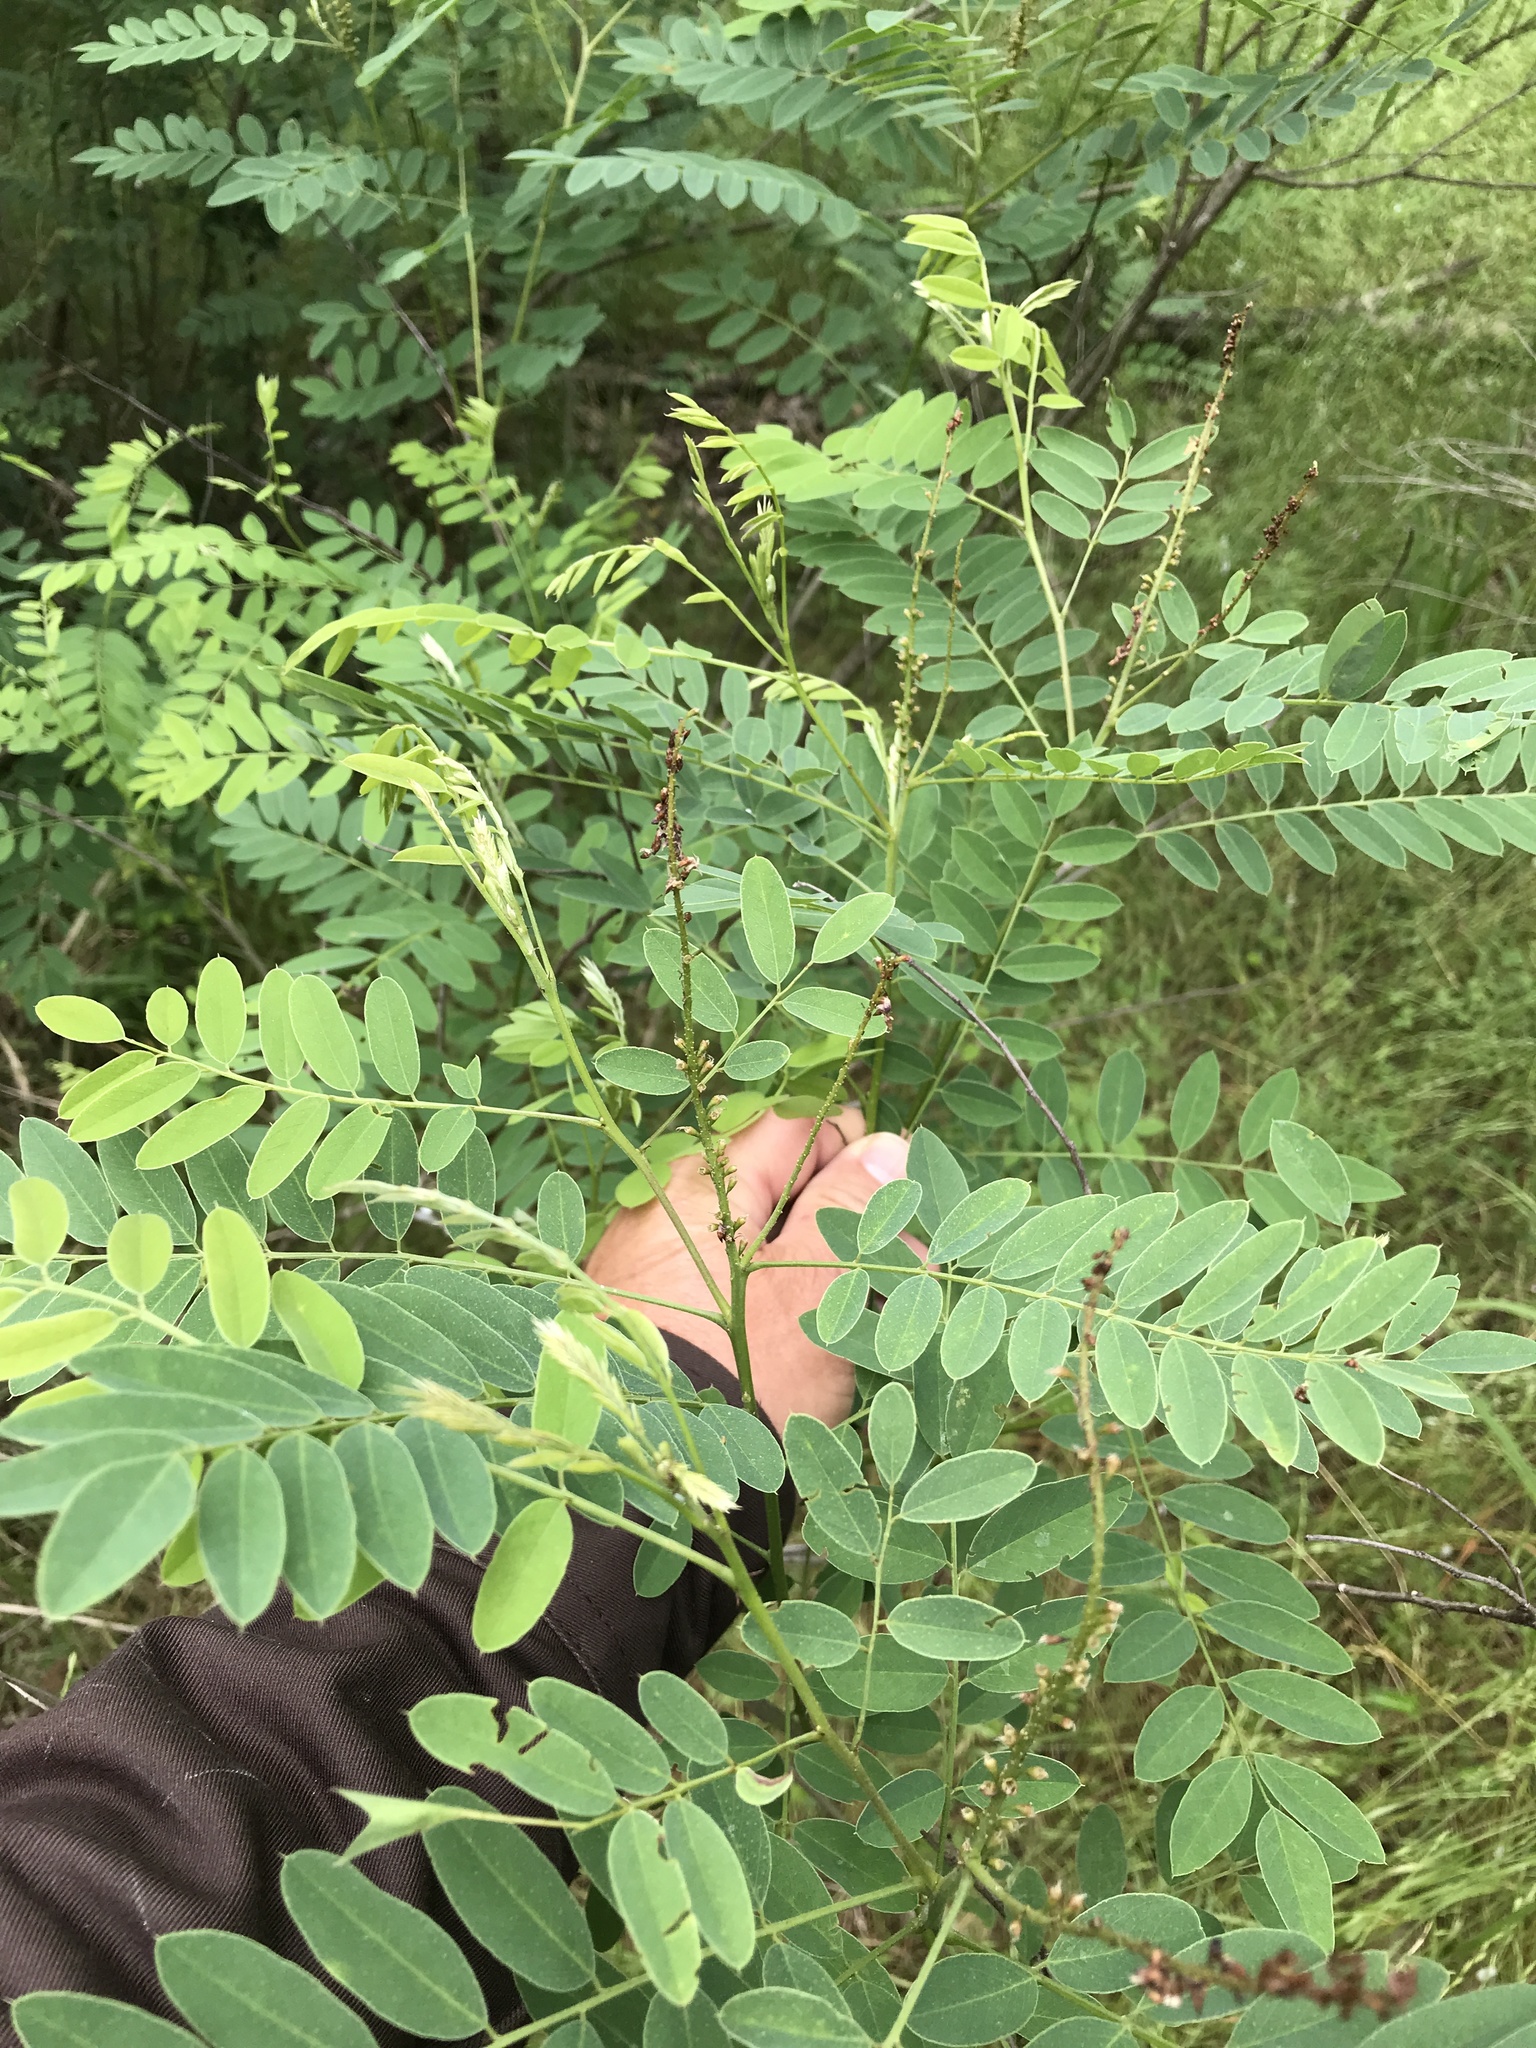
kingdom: Plantae
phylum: Tracheophyta
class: Magnoliopsida
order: Fabales
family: Fabaceae
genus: Amorpha
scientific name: Amorpha fruticosa
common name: False indigo
